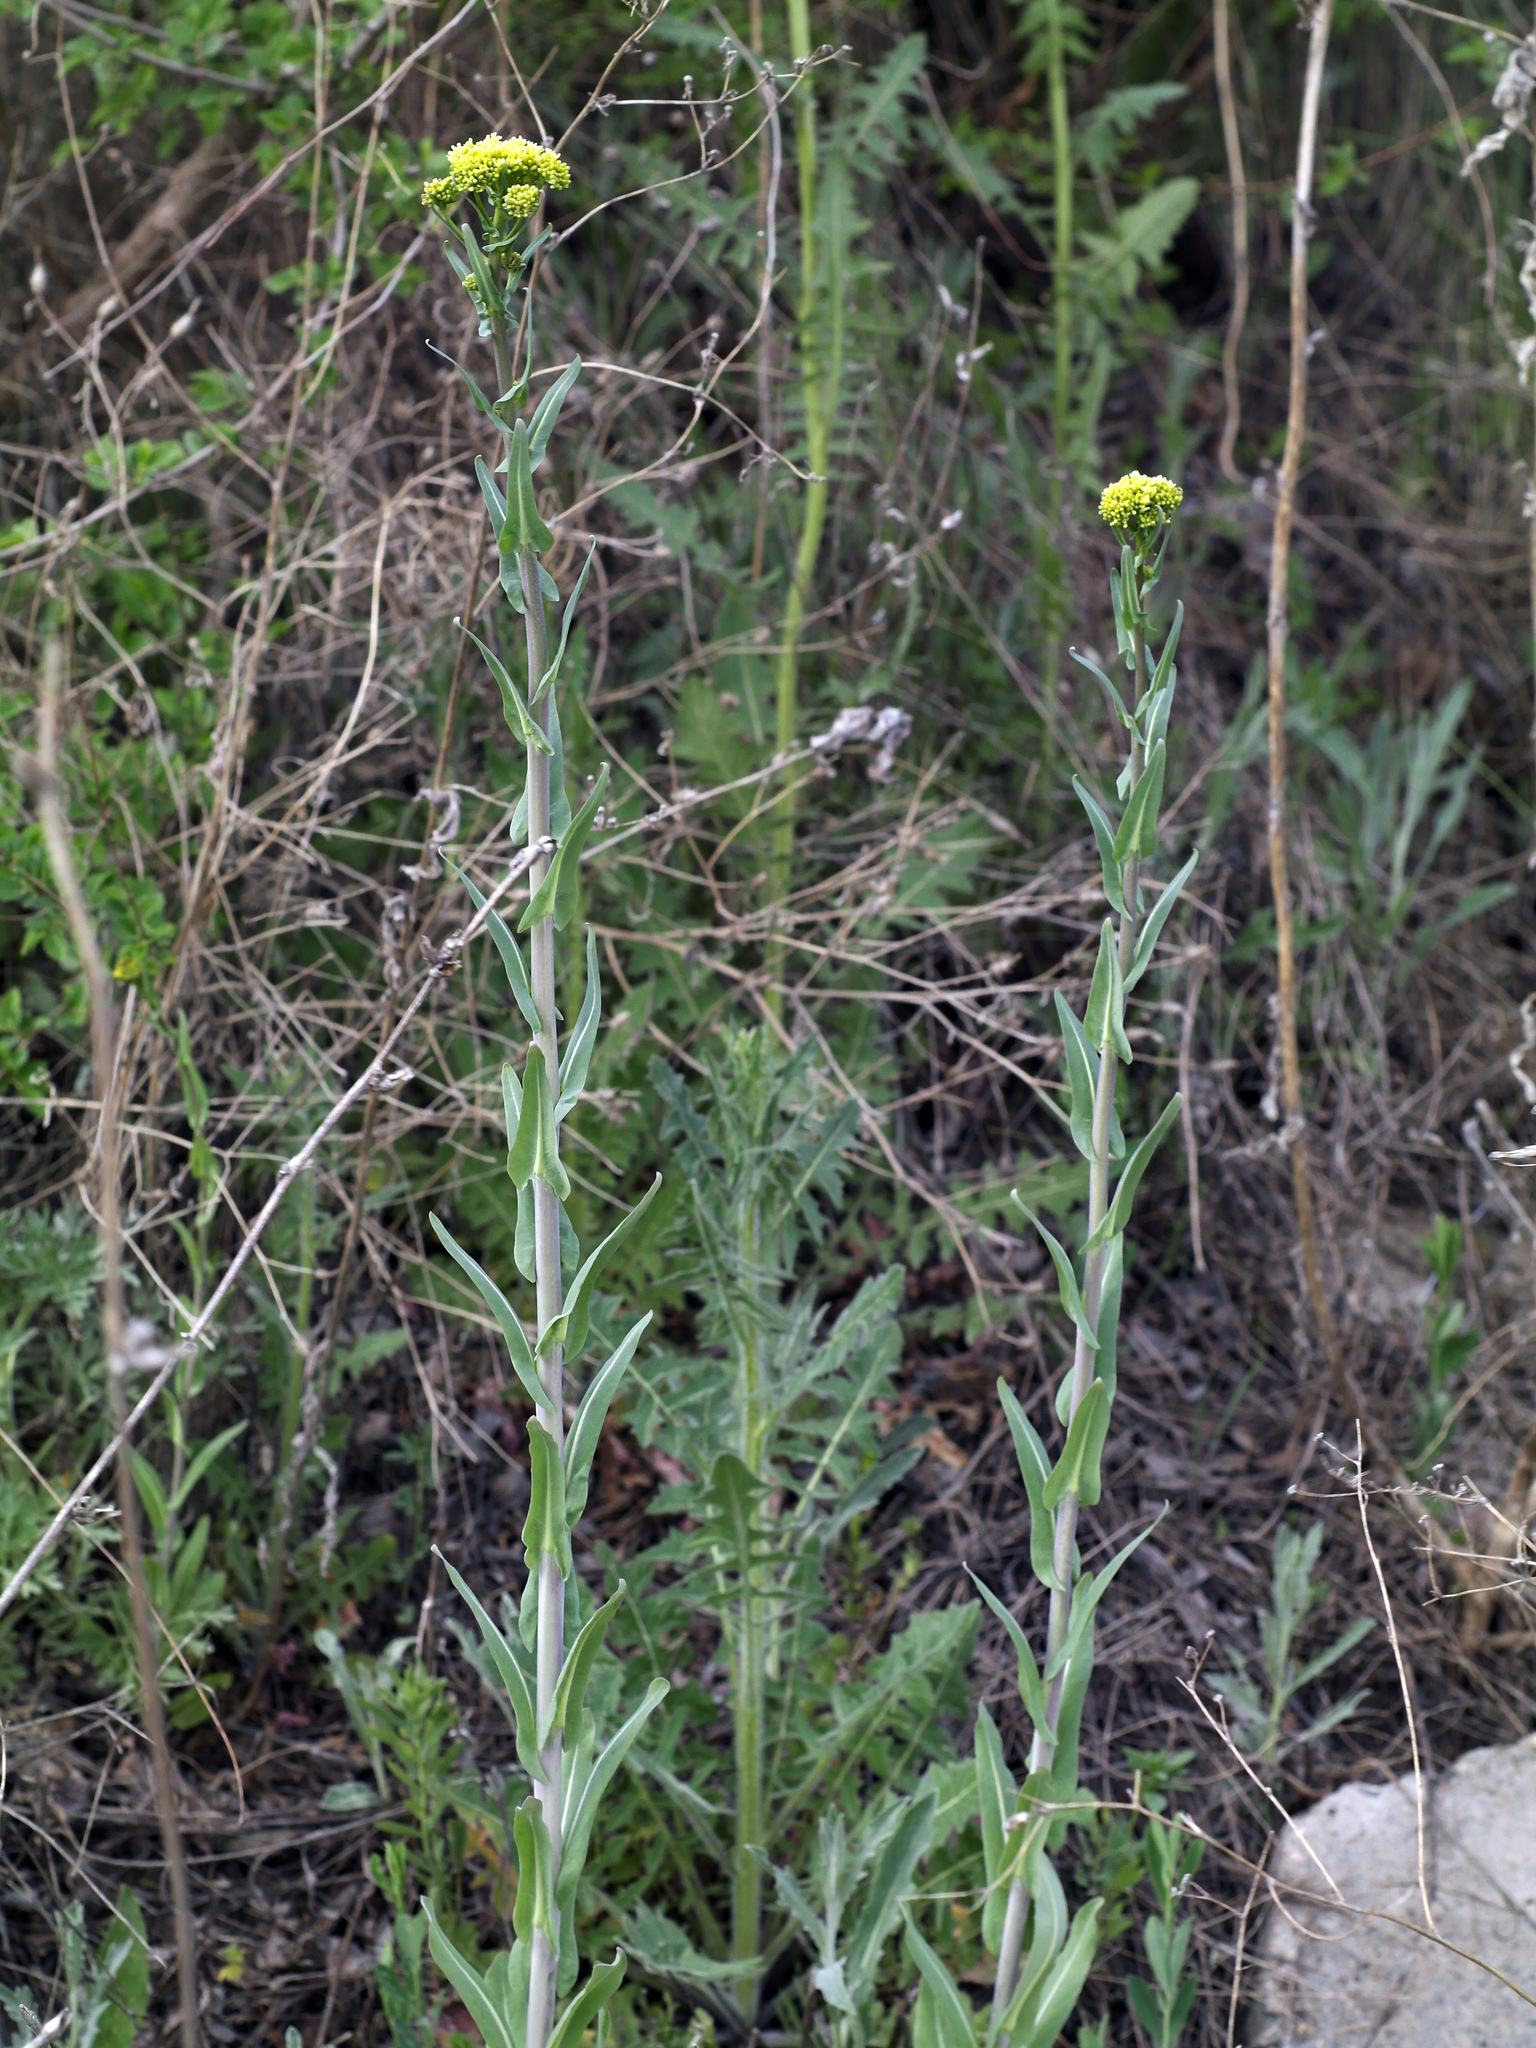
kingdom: Plantae
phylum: Tracheophyta
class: Magnoliopsida
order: Brassicales
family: Brassicaceae
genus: Isatis
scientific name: Isatis tinctoria
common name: Woad
